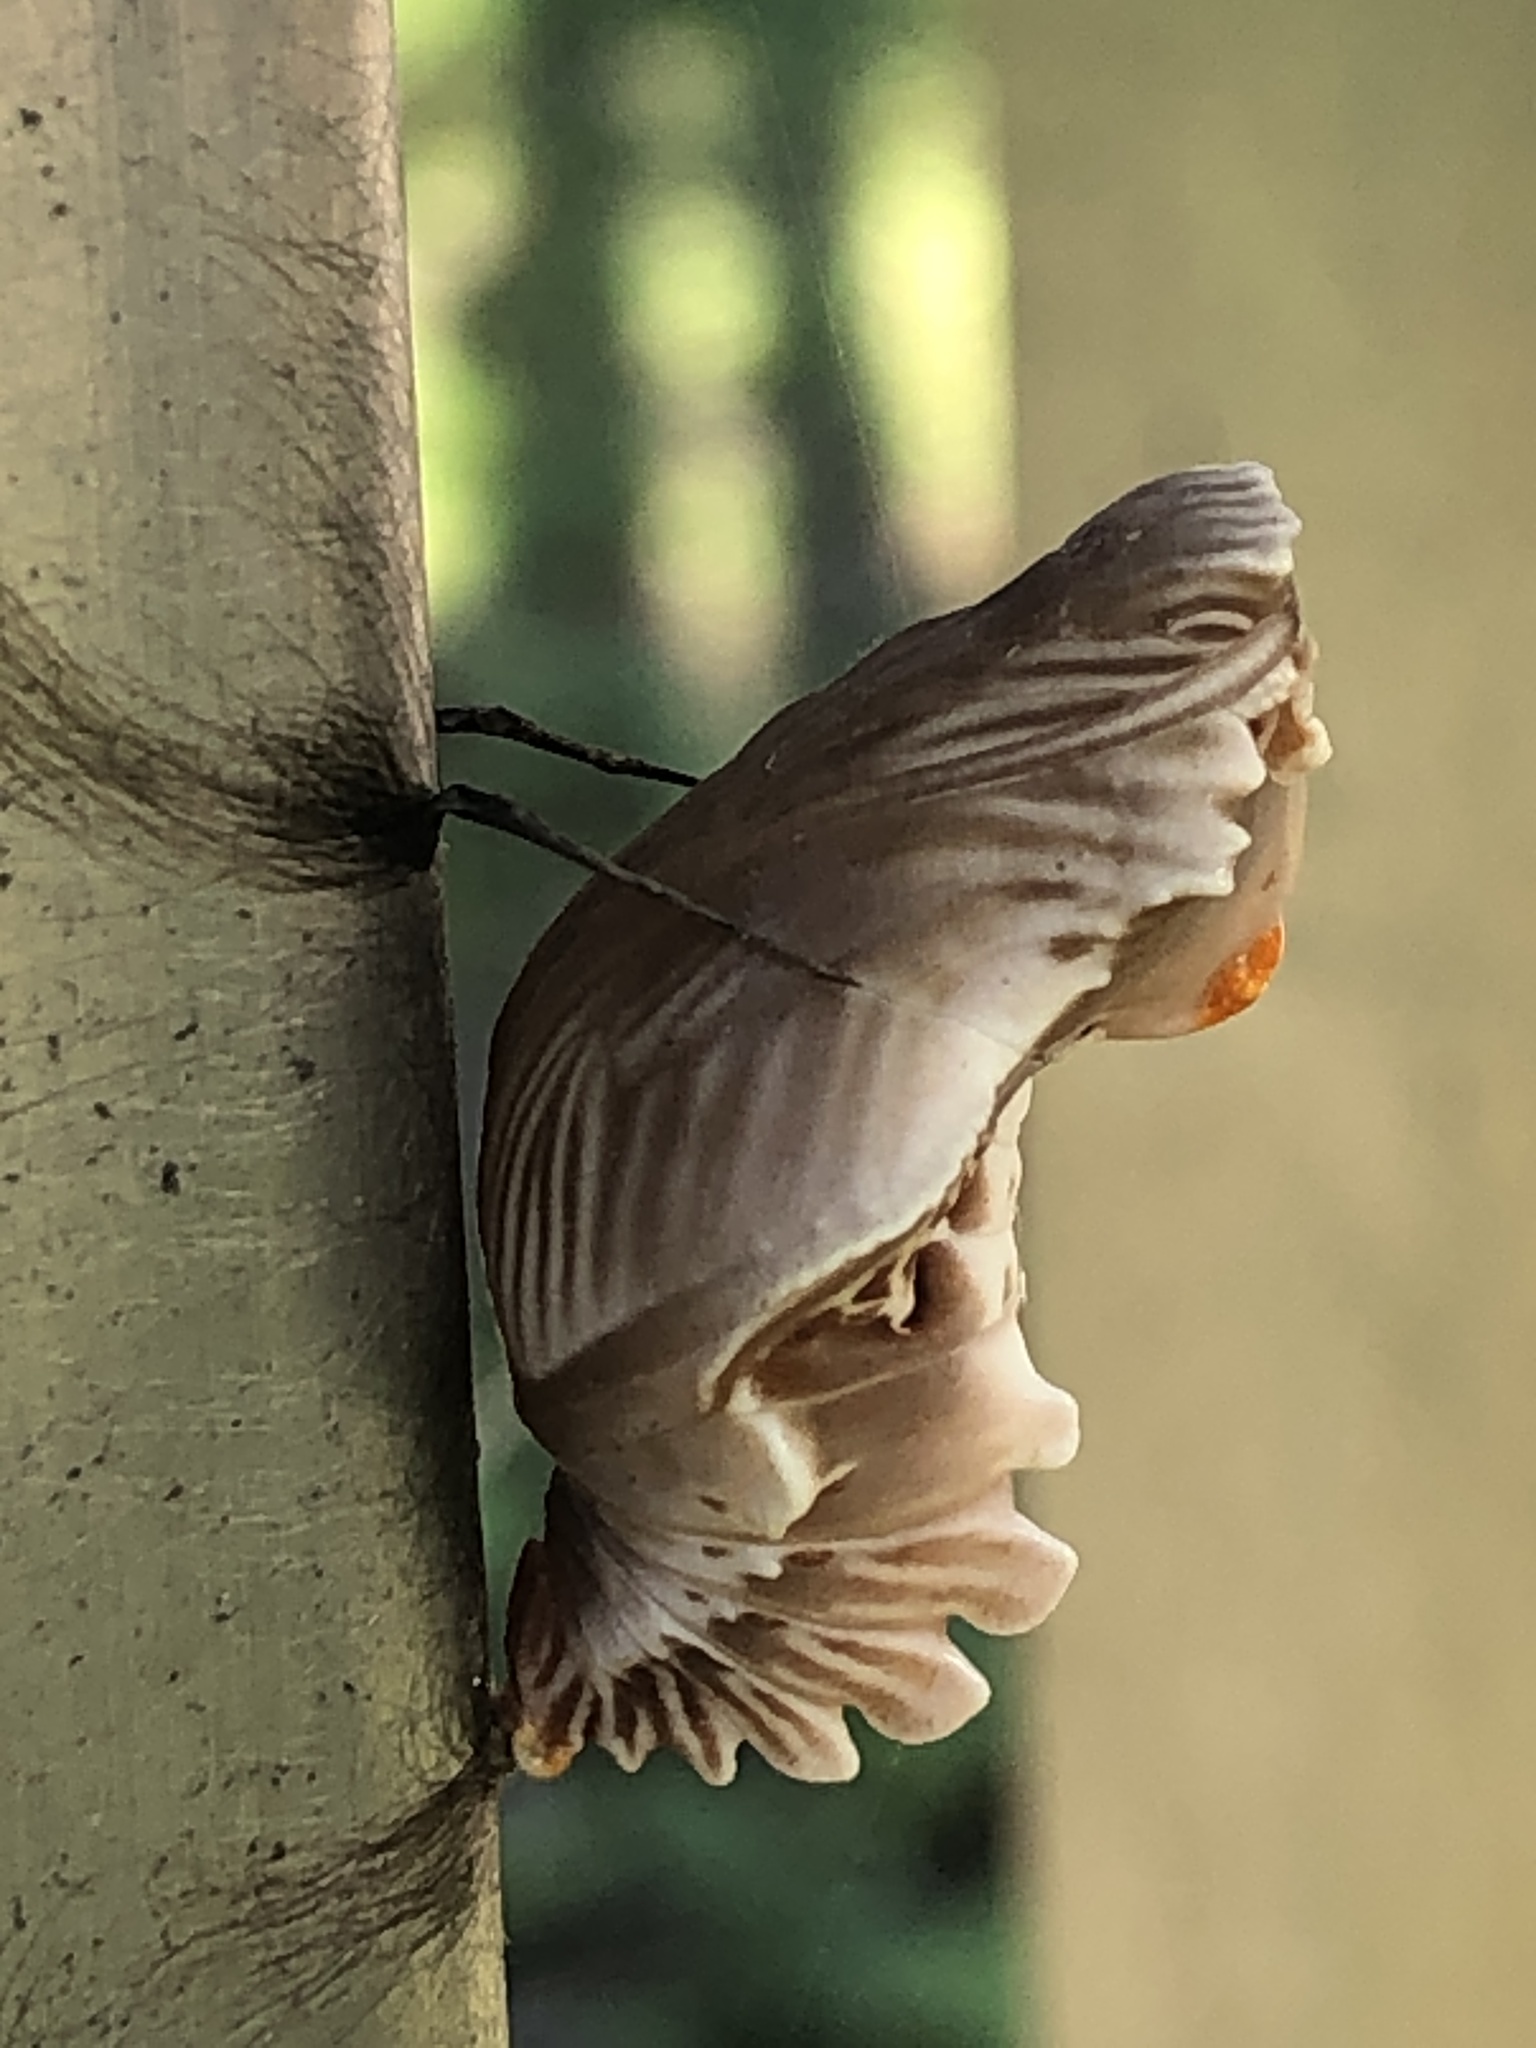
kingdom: Animalia
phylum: Arthropoda
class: Insecta
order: Lepidoptera
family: Papilionidae
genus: Byasa
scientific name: Byasa alcinous
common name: Chinese windmill
